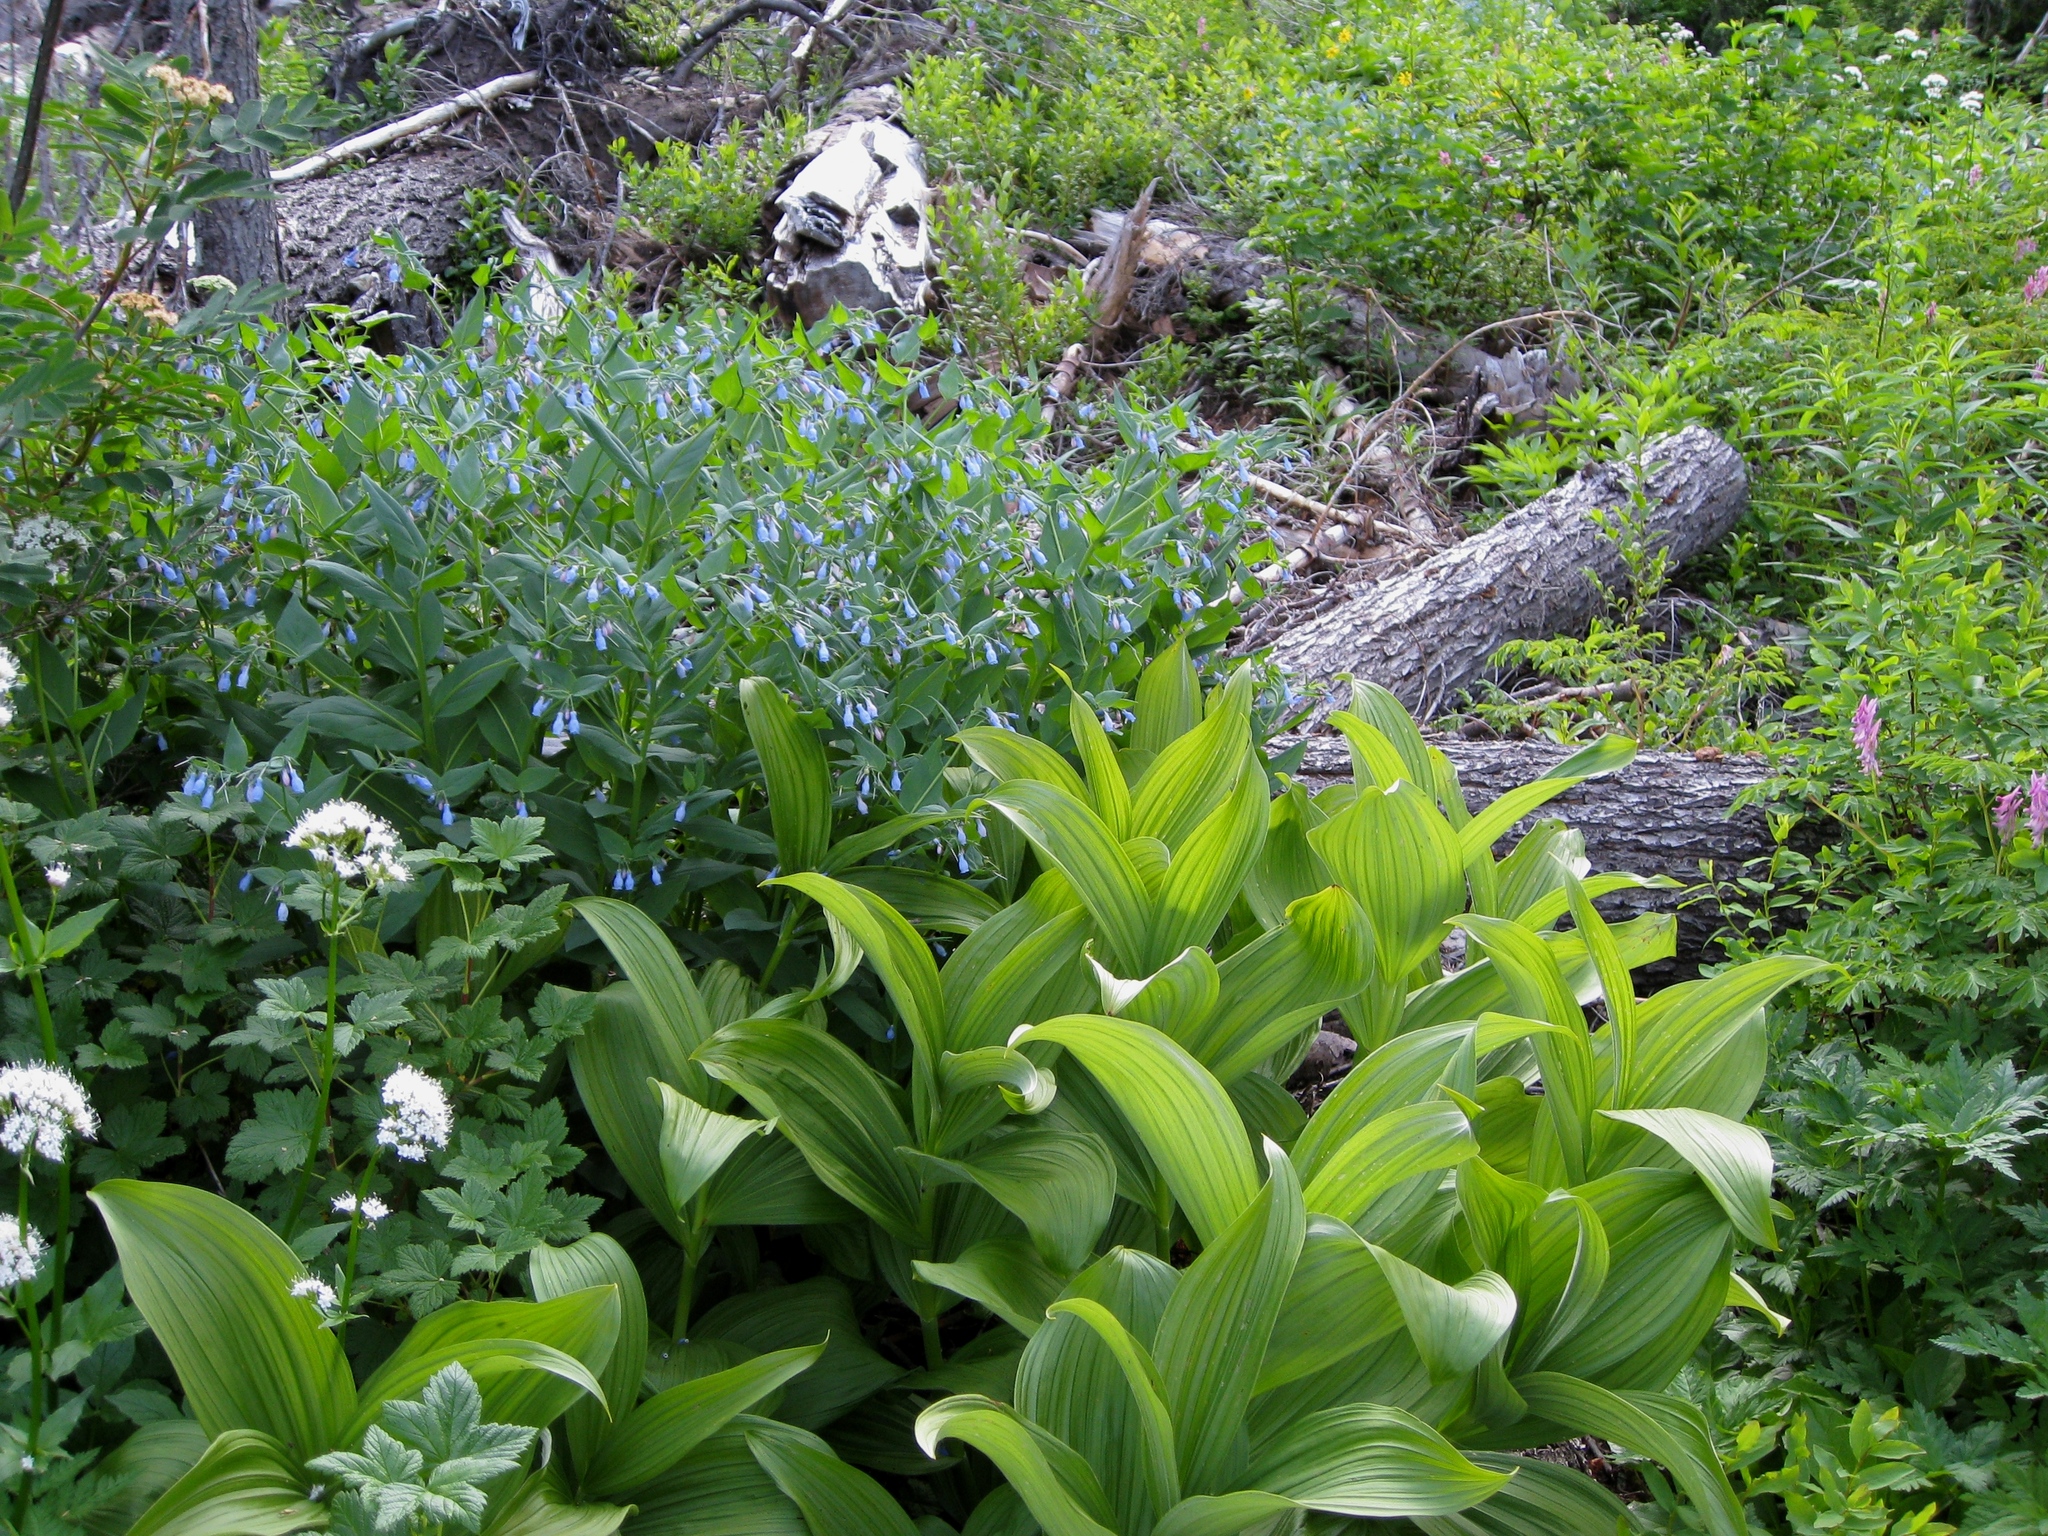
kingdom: Plantae
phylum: Tracheophyta
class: Magnoliopsida
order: Boraginales
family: Boraginaceae
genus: Mertensia
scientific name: Mertensia paniculata
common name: Panicled bluebells
